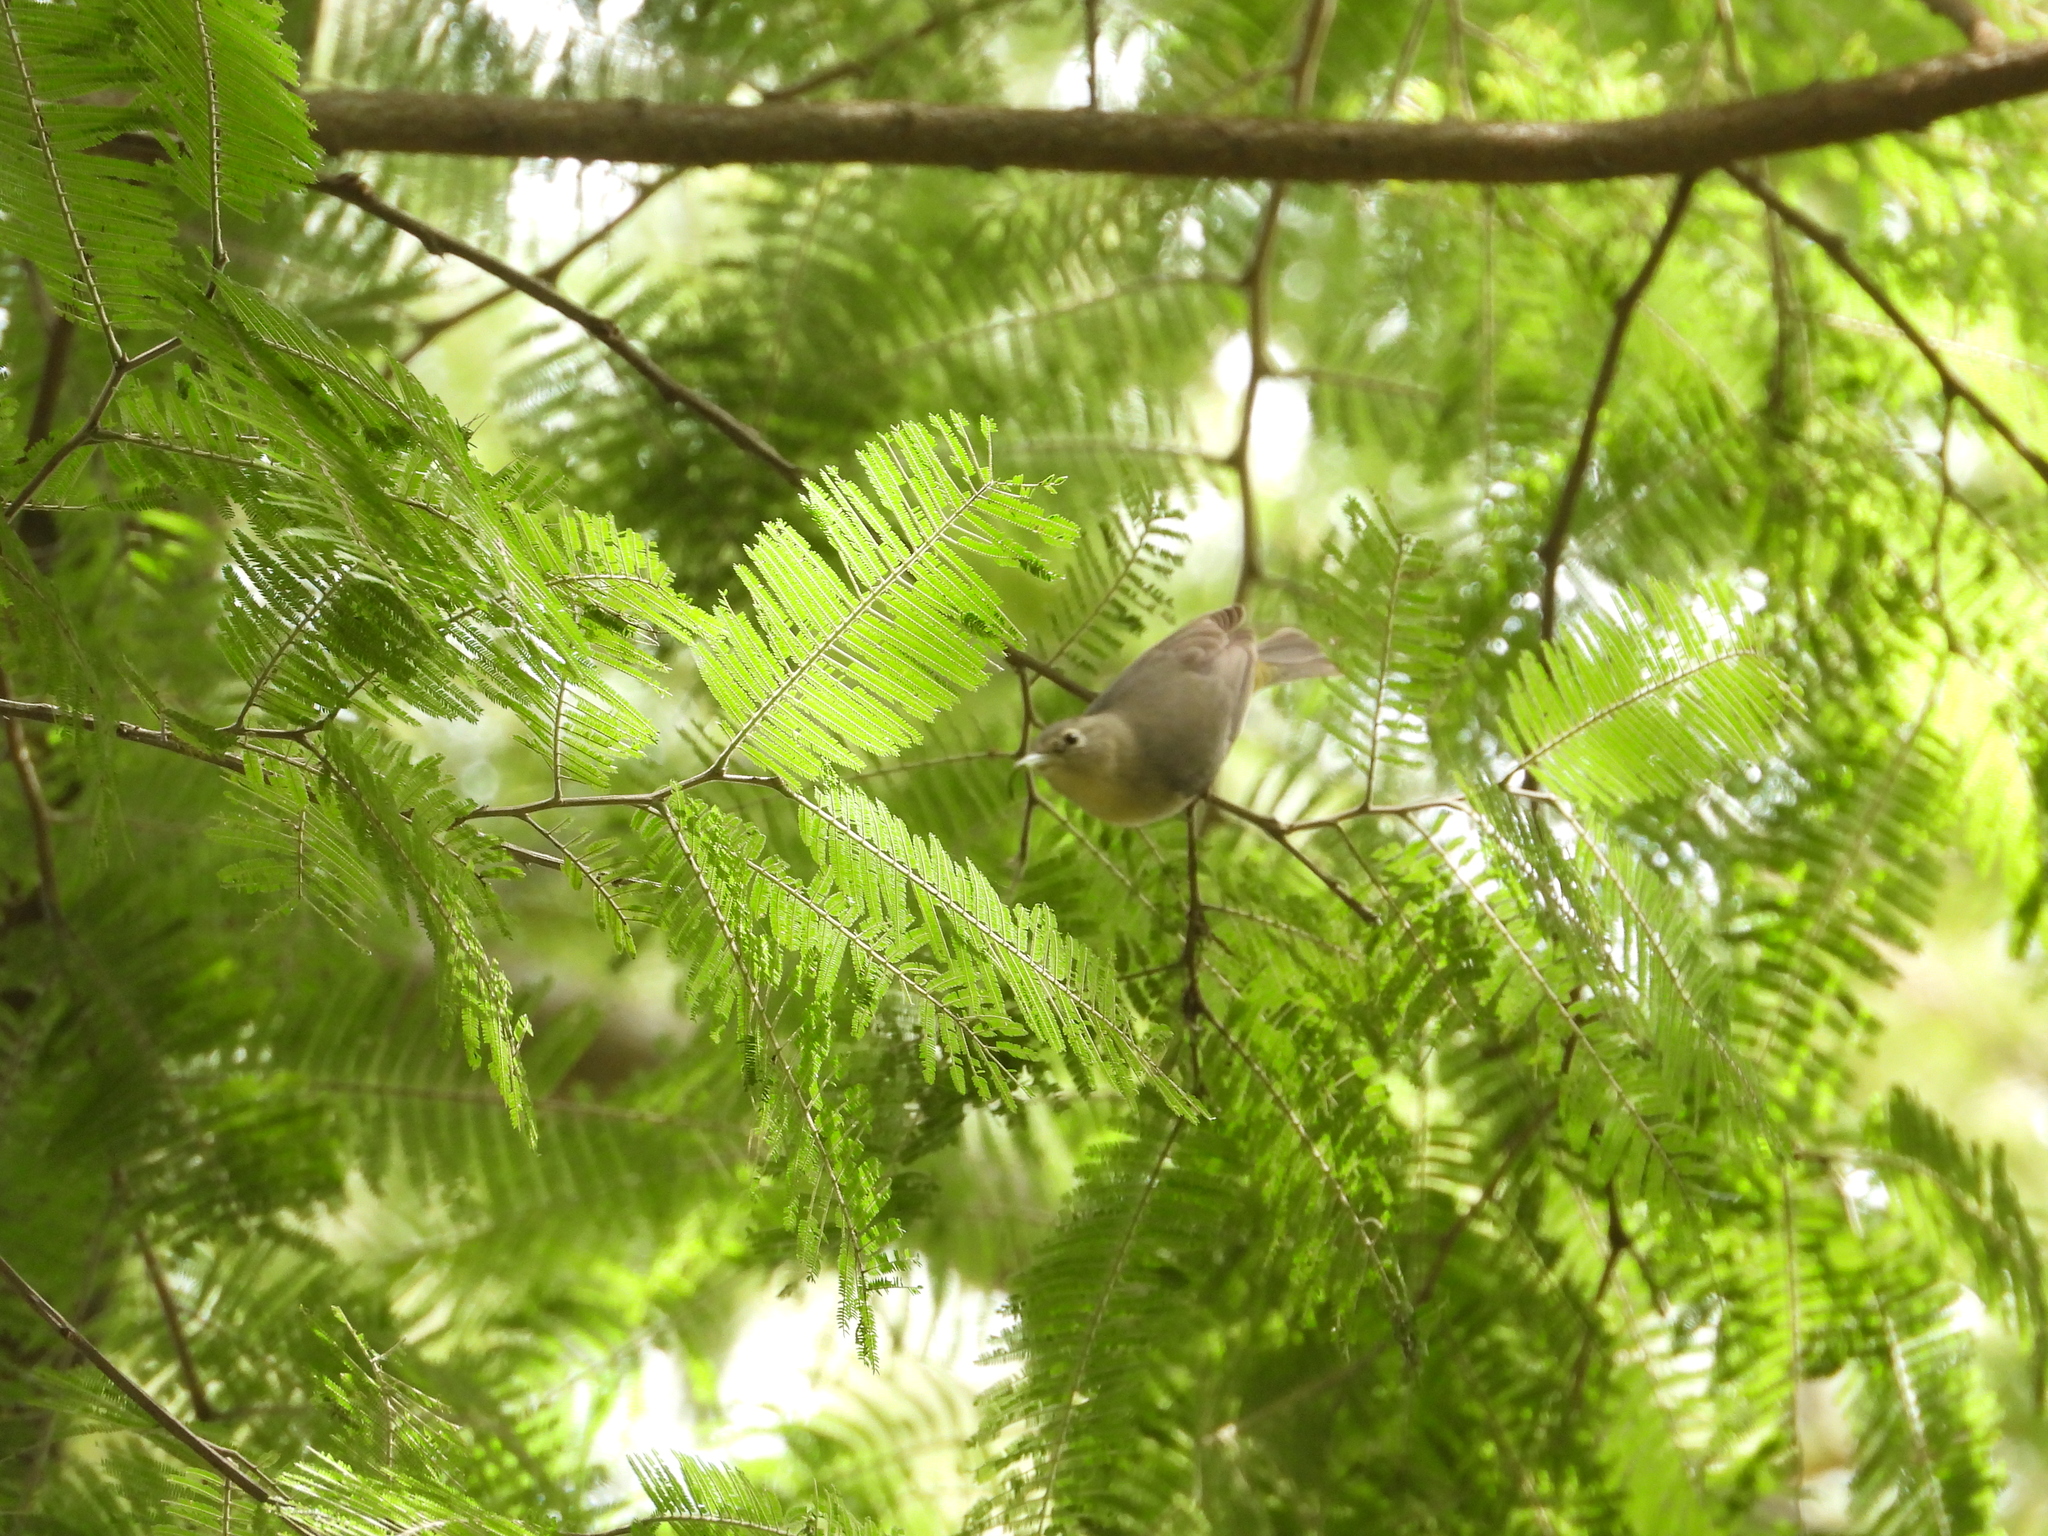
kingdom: Animalia
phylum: Chordata
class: Aves
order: Passeriformes
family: Parulidae
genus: Leiothlypis
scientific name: Leiothlypis ruficapilla
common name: Nashville warbler
